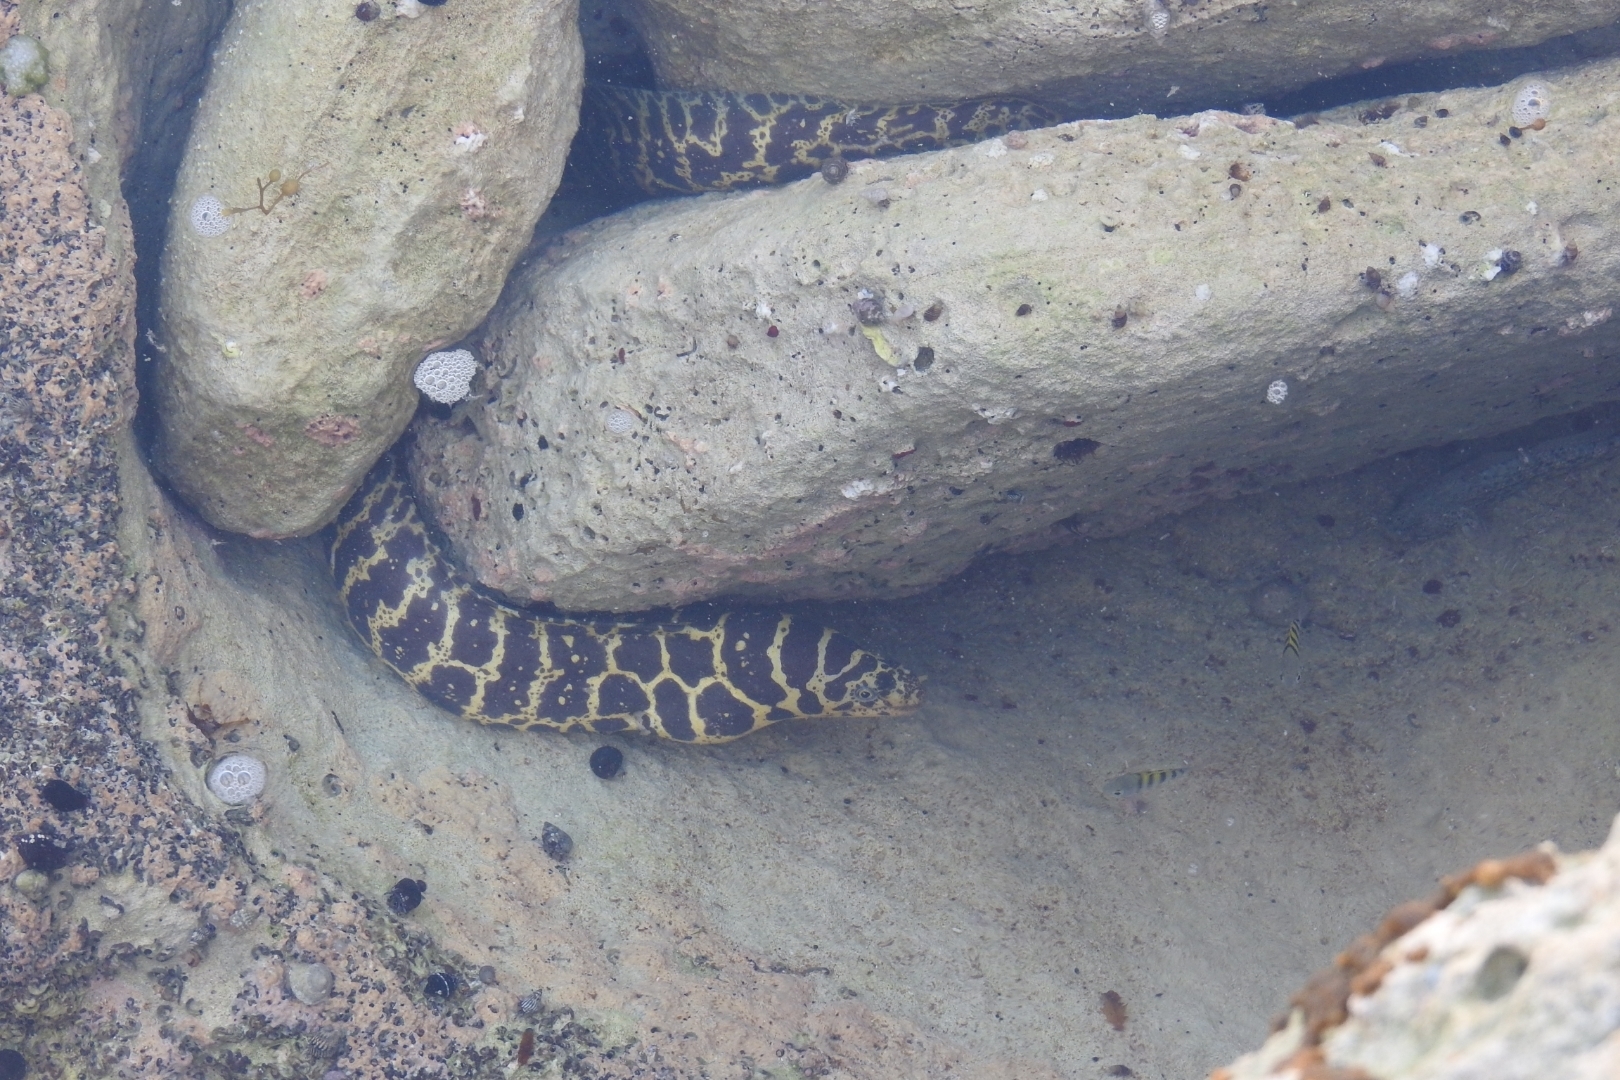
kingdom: Animalia
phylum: Chordata
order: Anguilliformes
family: Muraenidae
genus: Echidna
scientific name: Echidna catenata
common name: Chain moray
